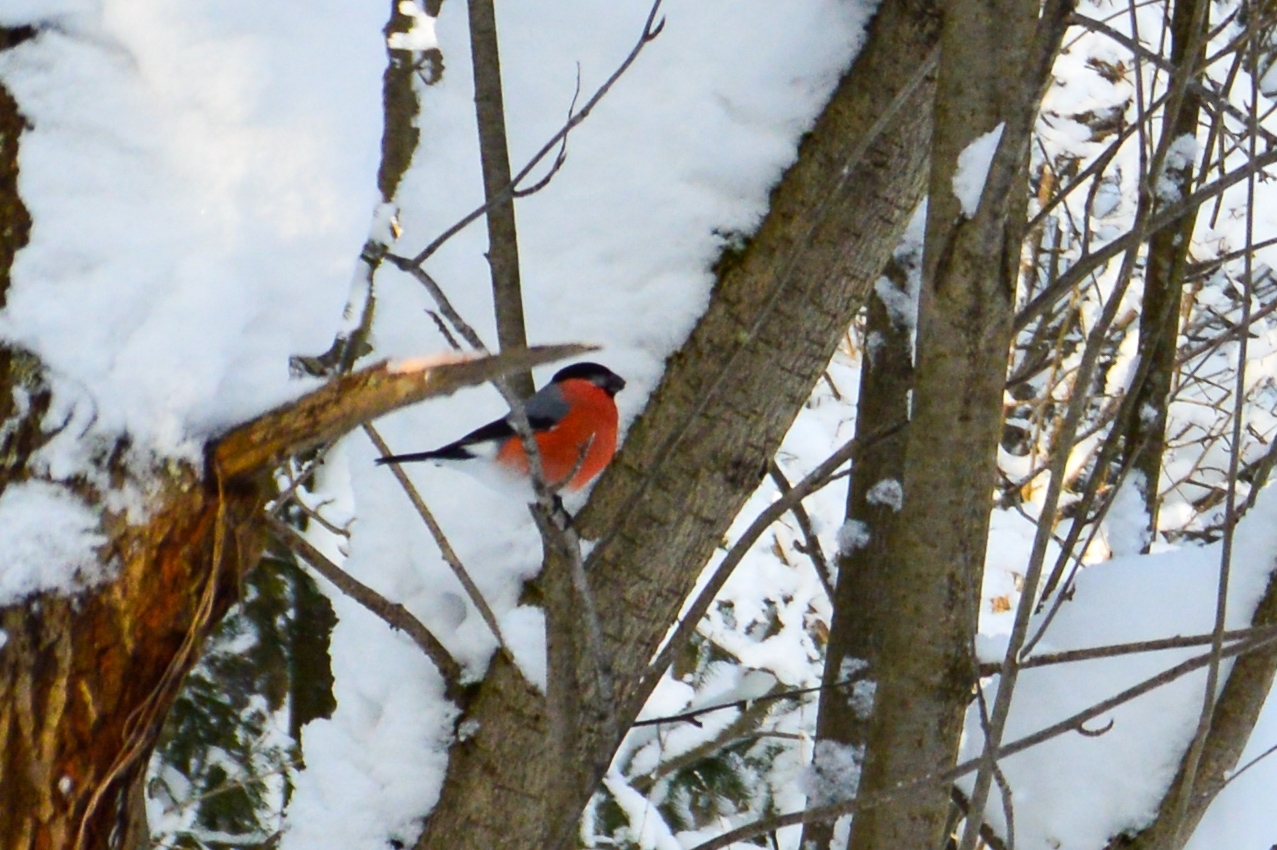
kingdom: Animalia
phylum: Chordata
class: Aves
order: Passeriformes
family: Fringillidae
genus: Pyrrhula
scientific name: Pyrrhula pyrrhula
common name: Eurasian bullfinch
